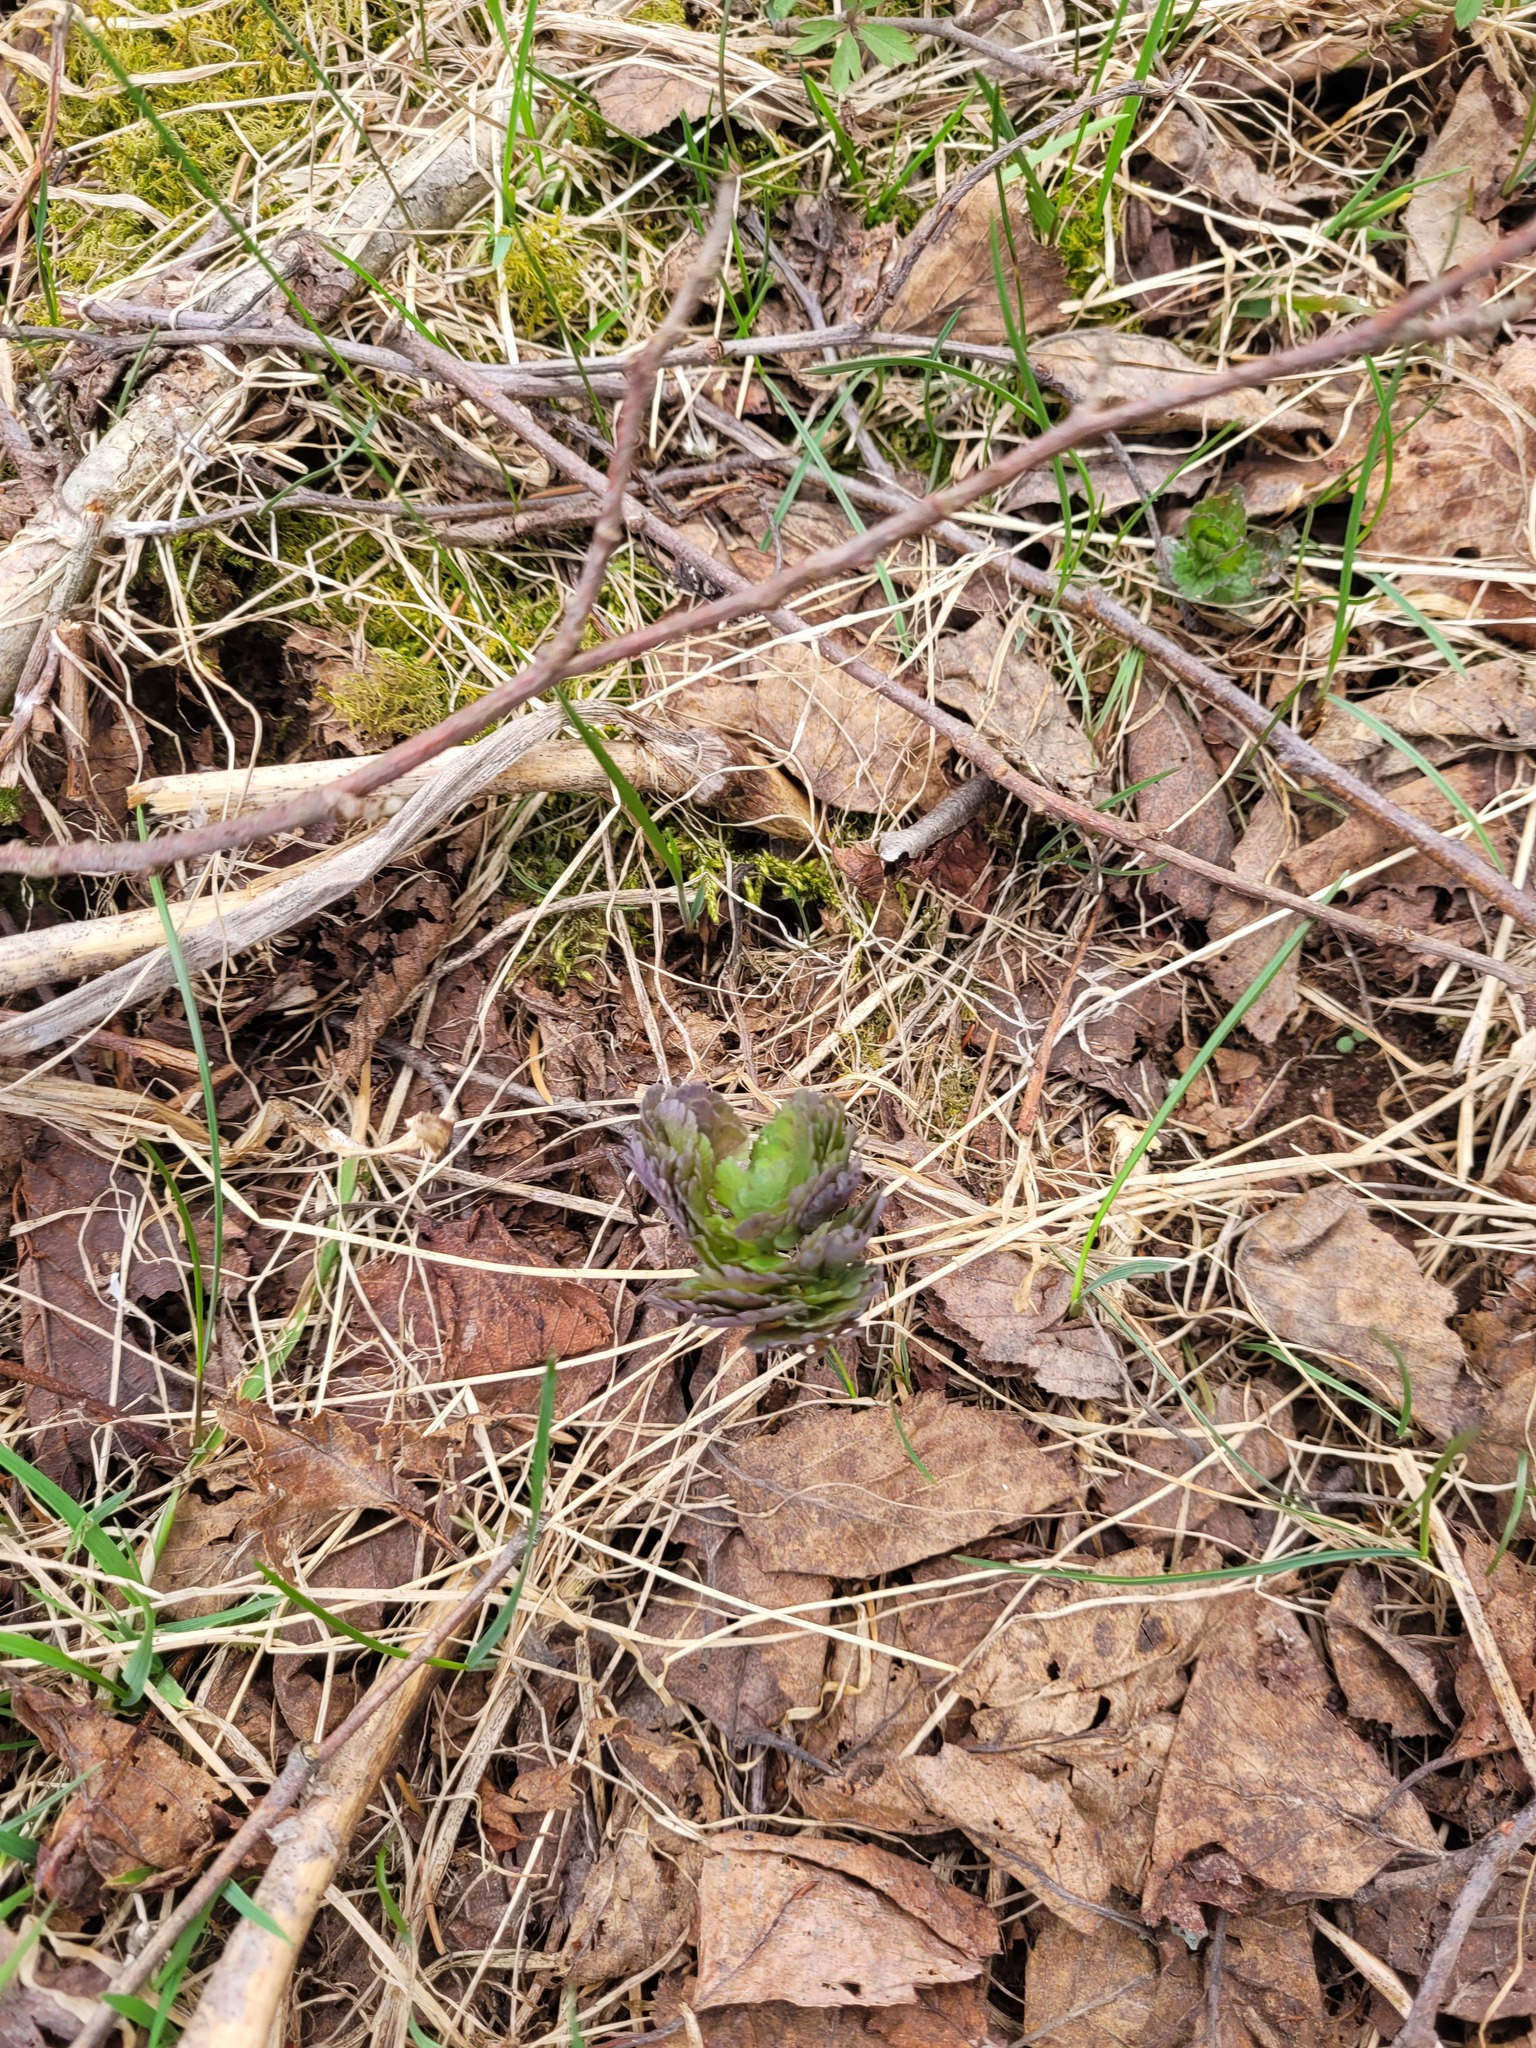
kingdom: Plantae
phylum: Tracheophyta
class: Magnoliopsida
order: Ranunculales
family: Ranunculaceae
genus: Thalictrum
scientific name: Thalictrum aquilegiifolium
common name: French meadow-rue
